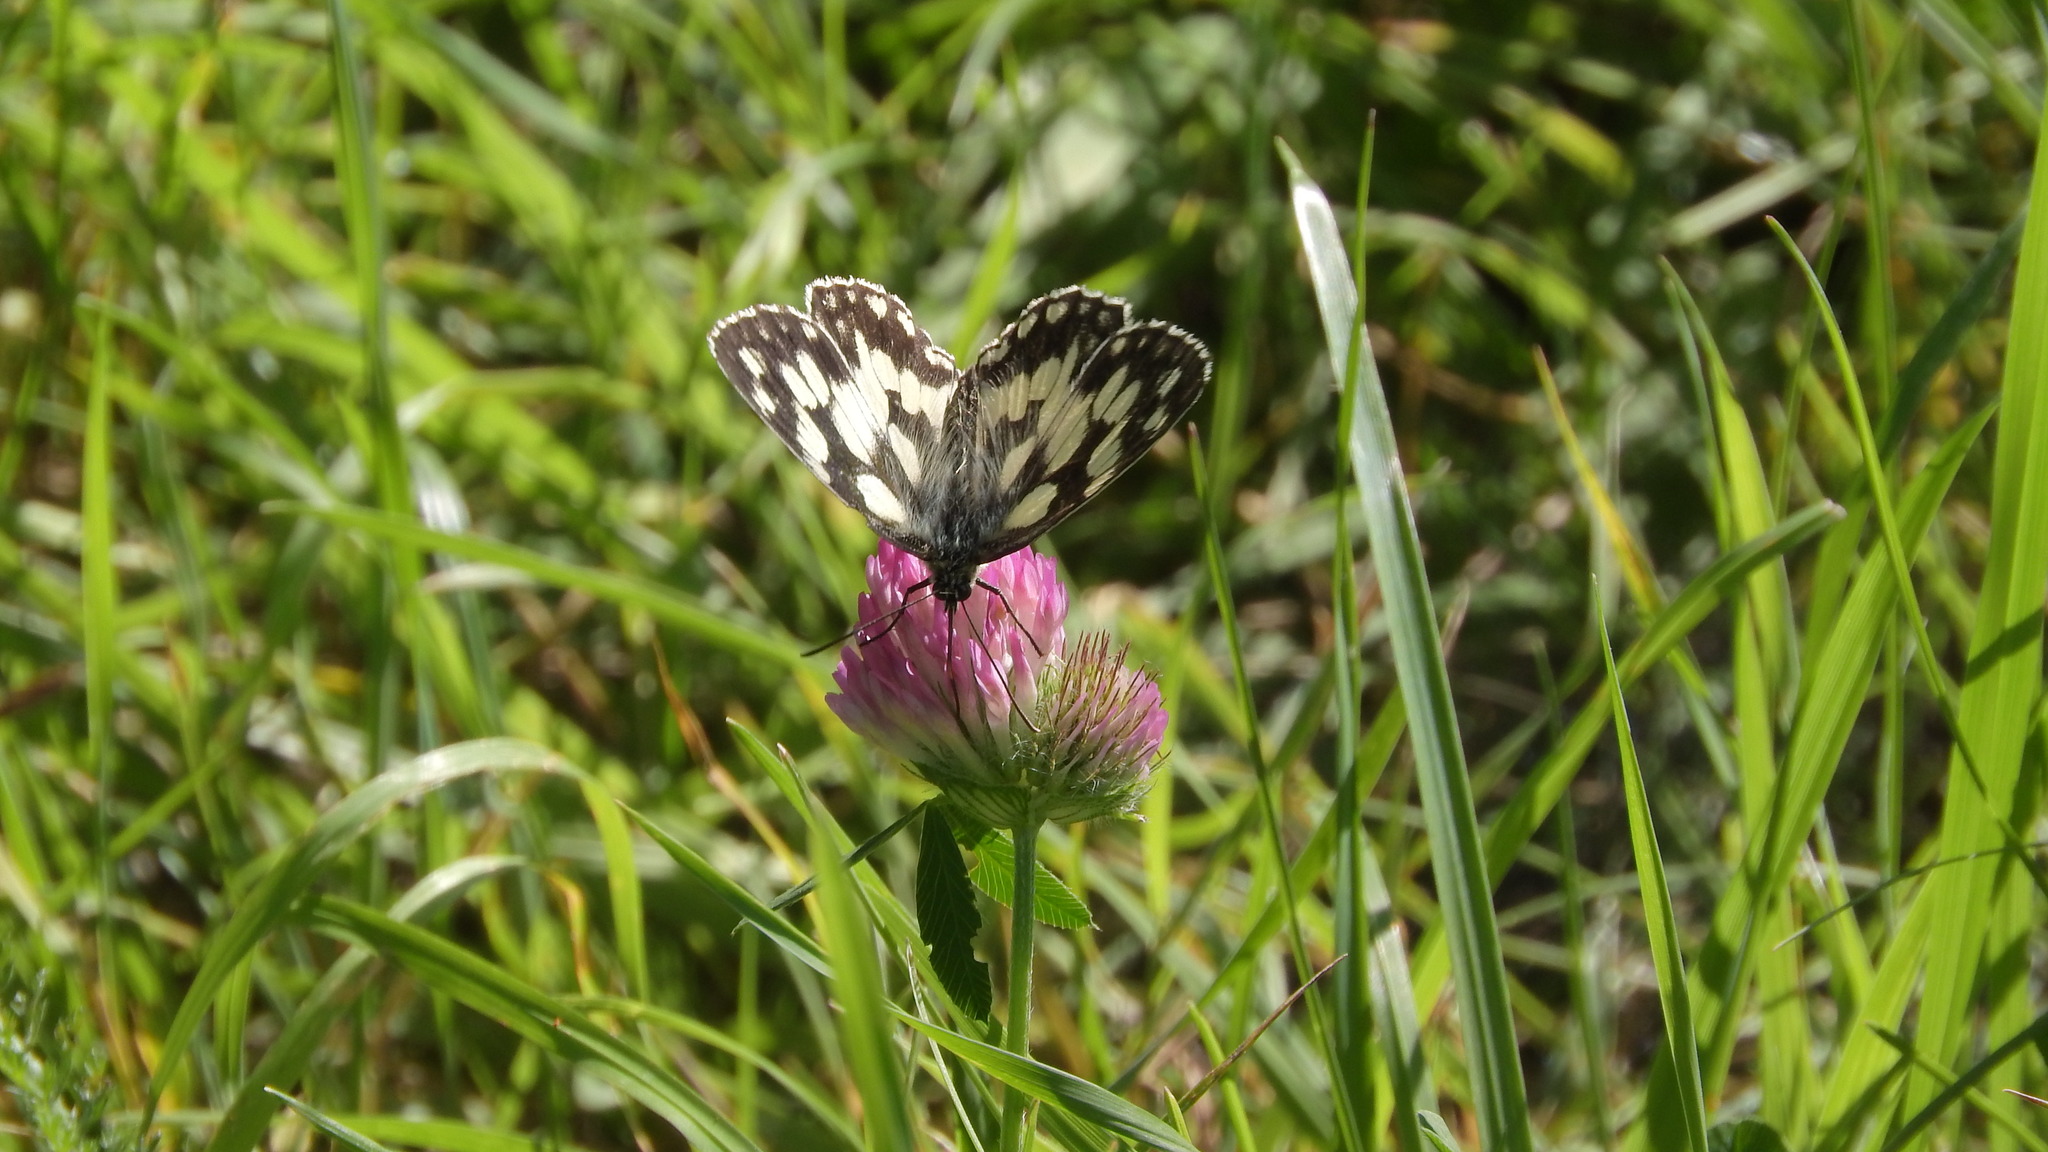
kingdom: Animalia
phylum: Arthropoda
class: Insecta
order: Lepidoptera
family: Nymphalidae
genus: Melanargia
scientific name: Melanargia galathea
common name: Marbled white
